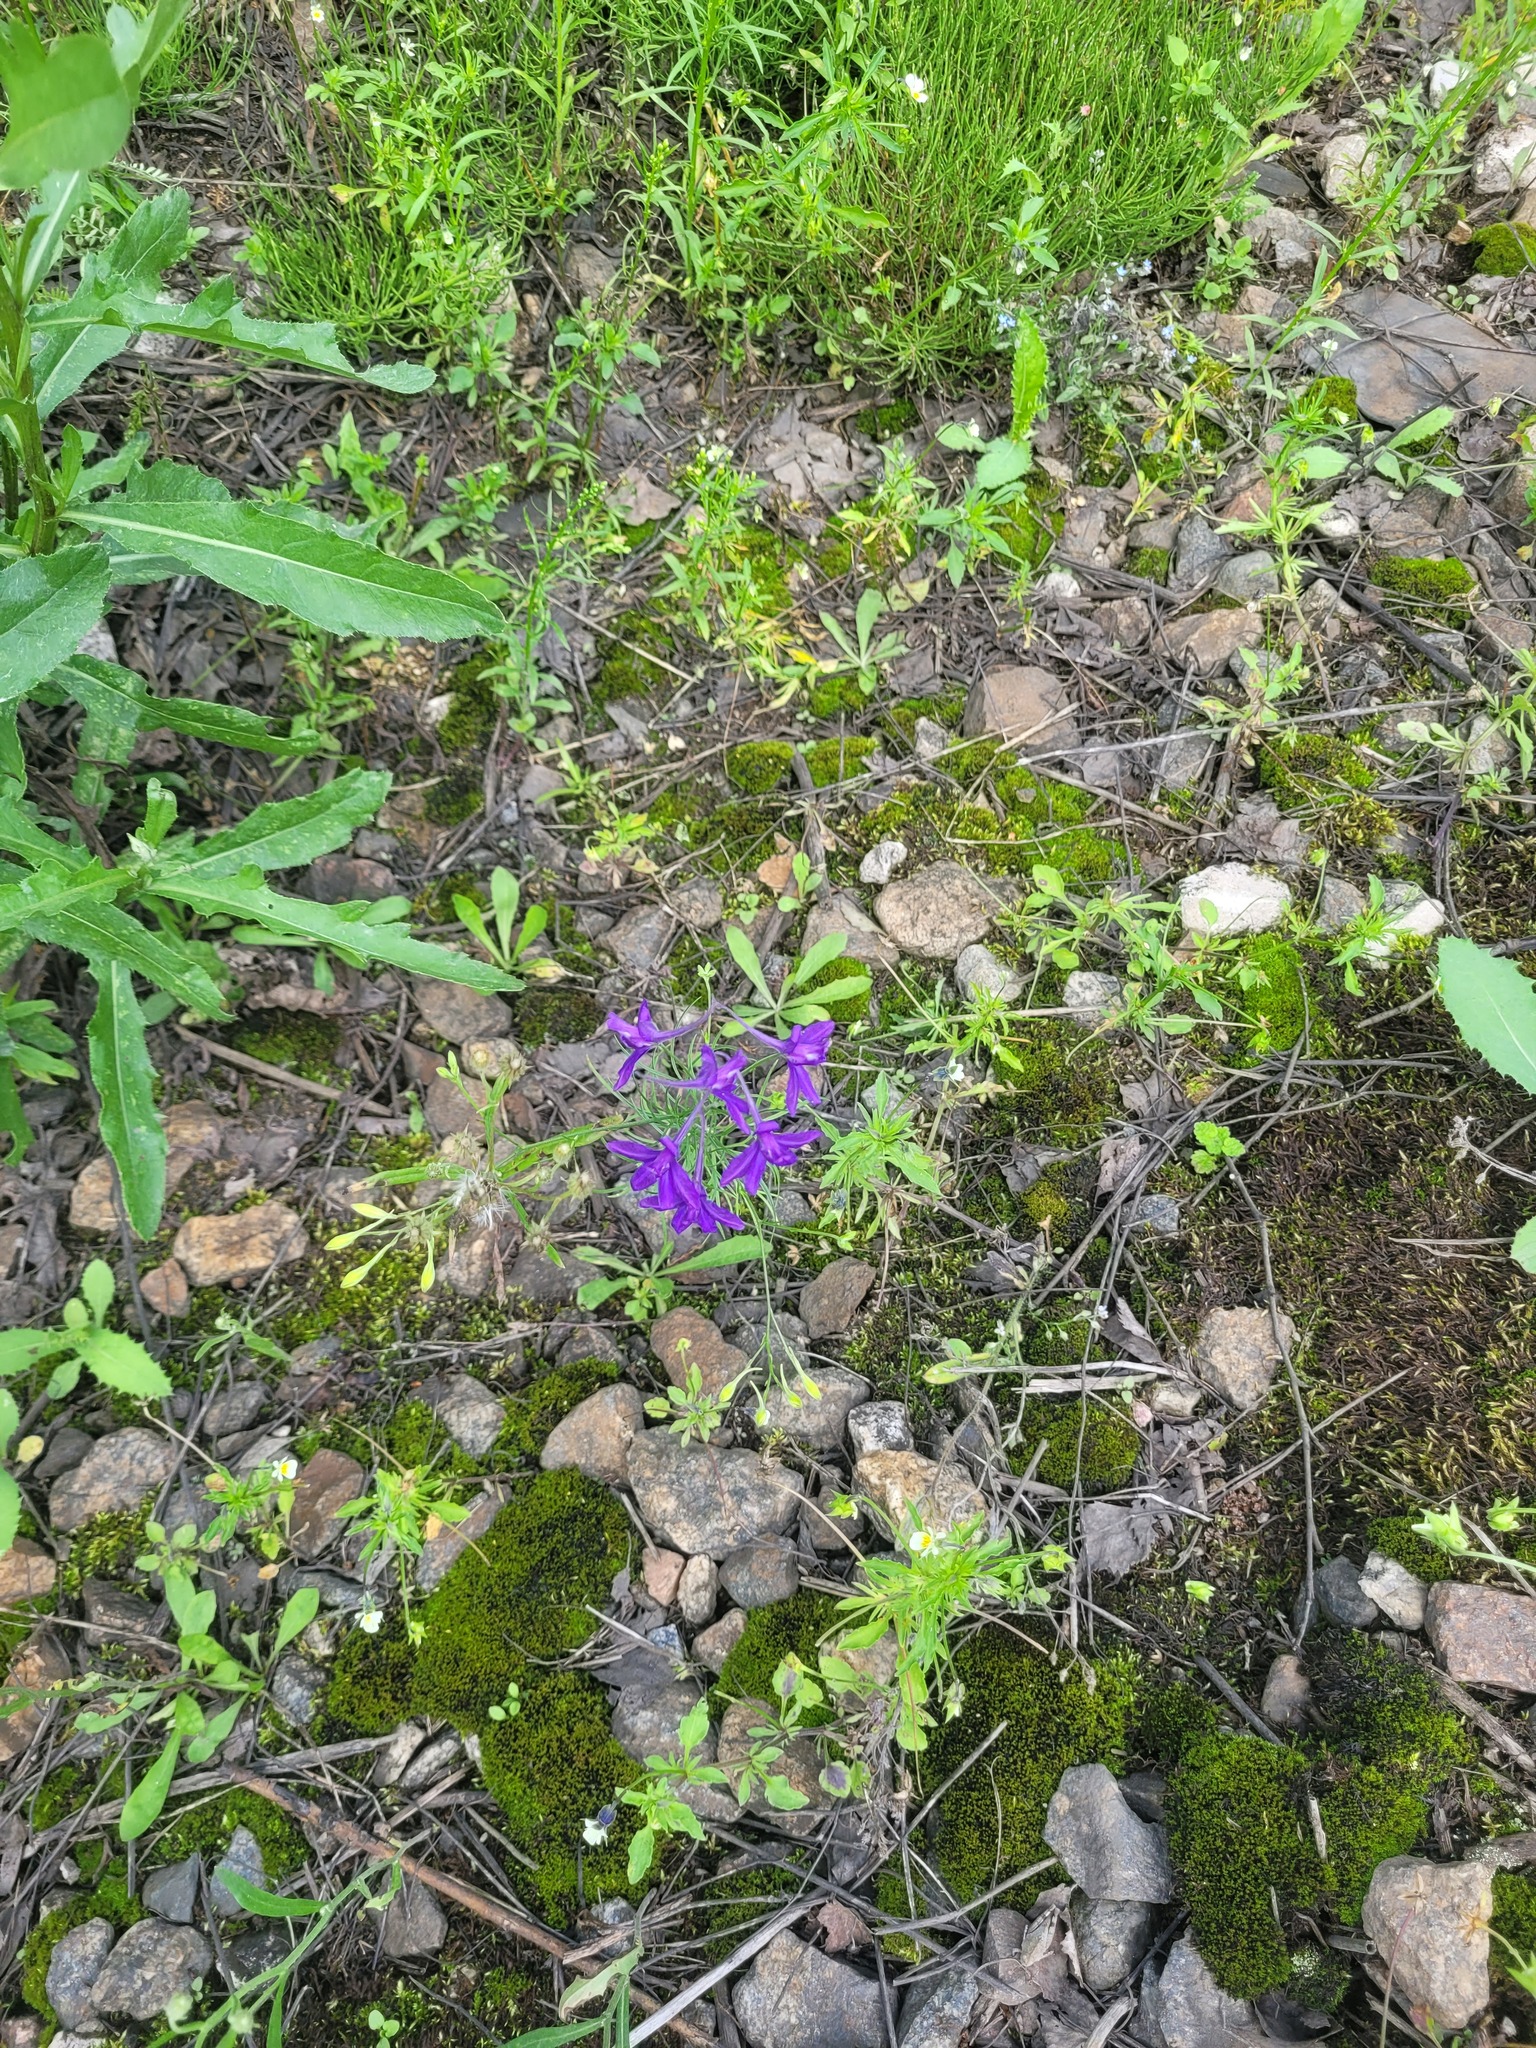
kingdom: Plantae
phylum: Tracheophyta
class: Magnoliopsida
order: Ranunculales
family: Ranunculaceae
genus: Delphinium
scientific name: Delphinium consolida
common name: Branching larkspur
